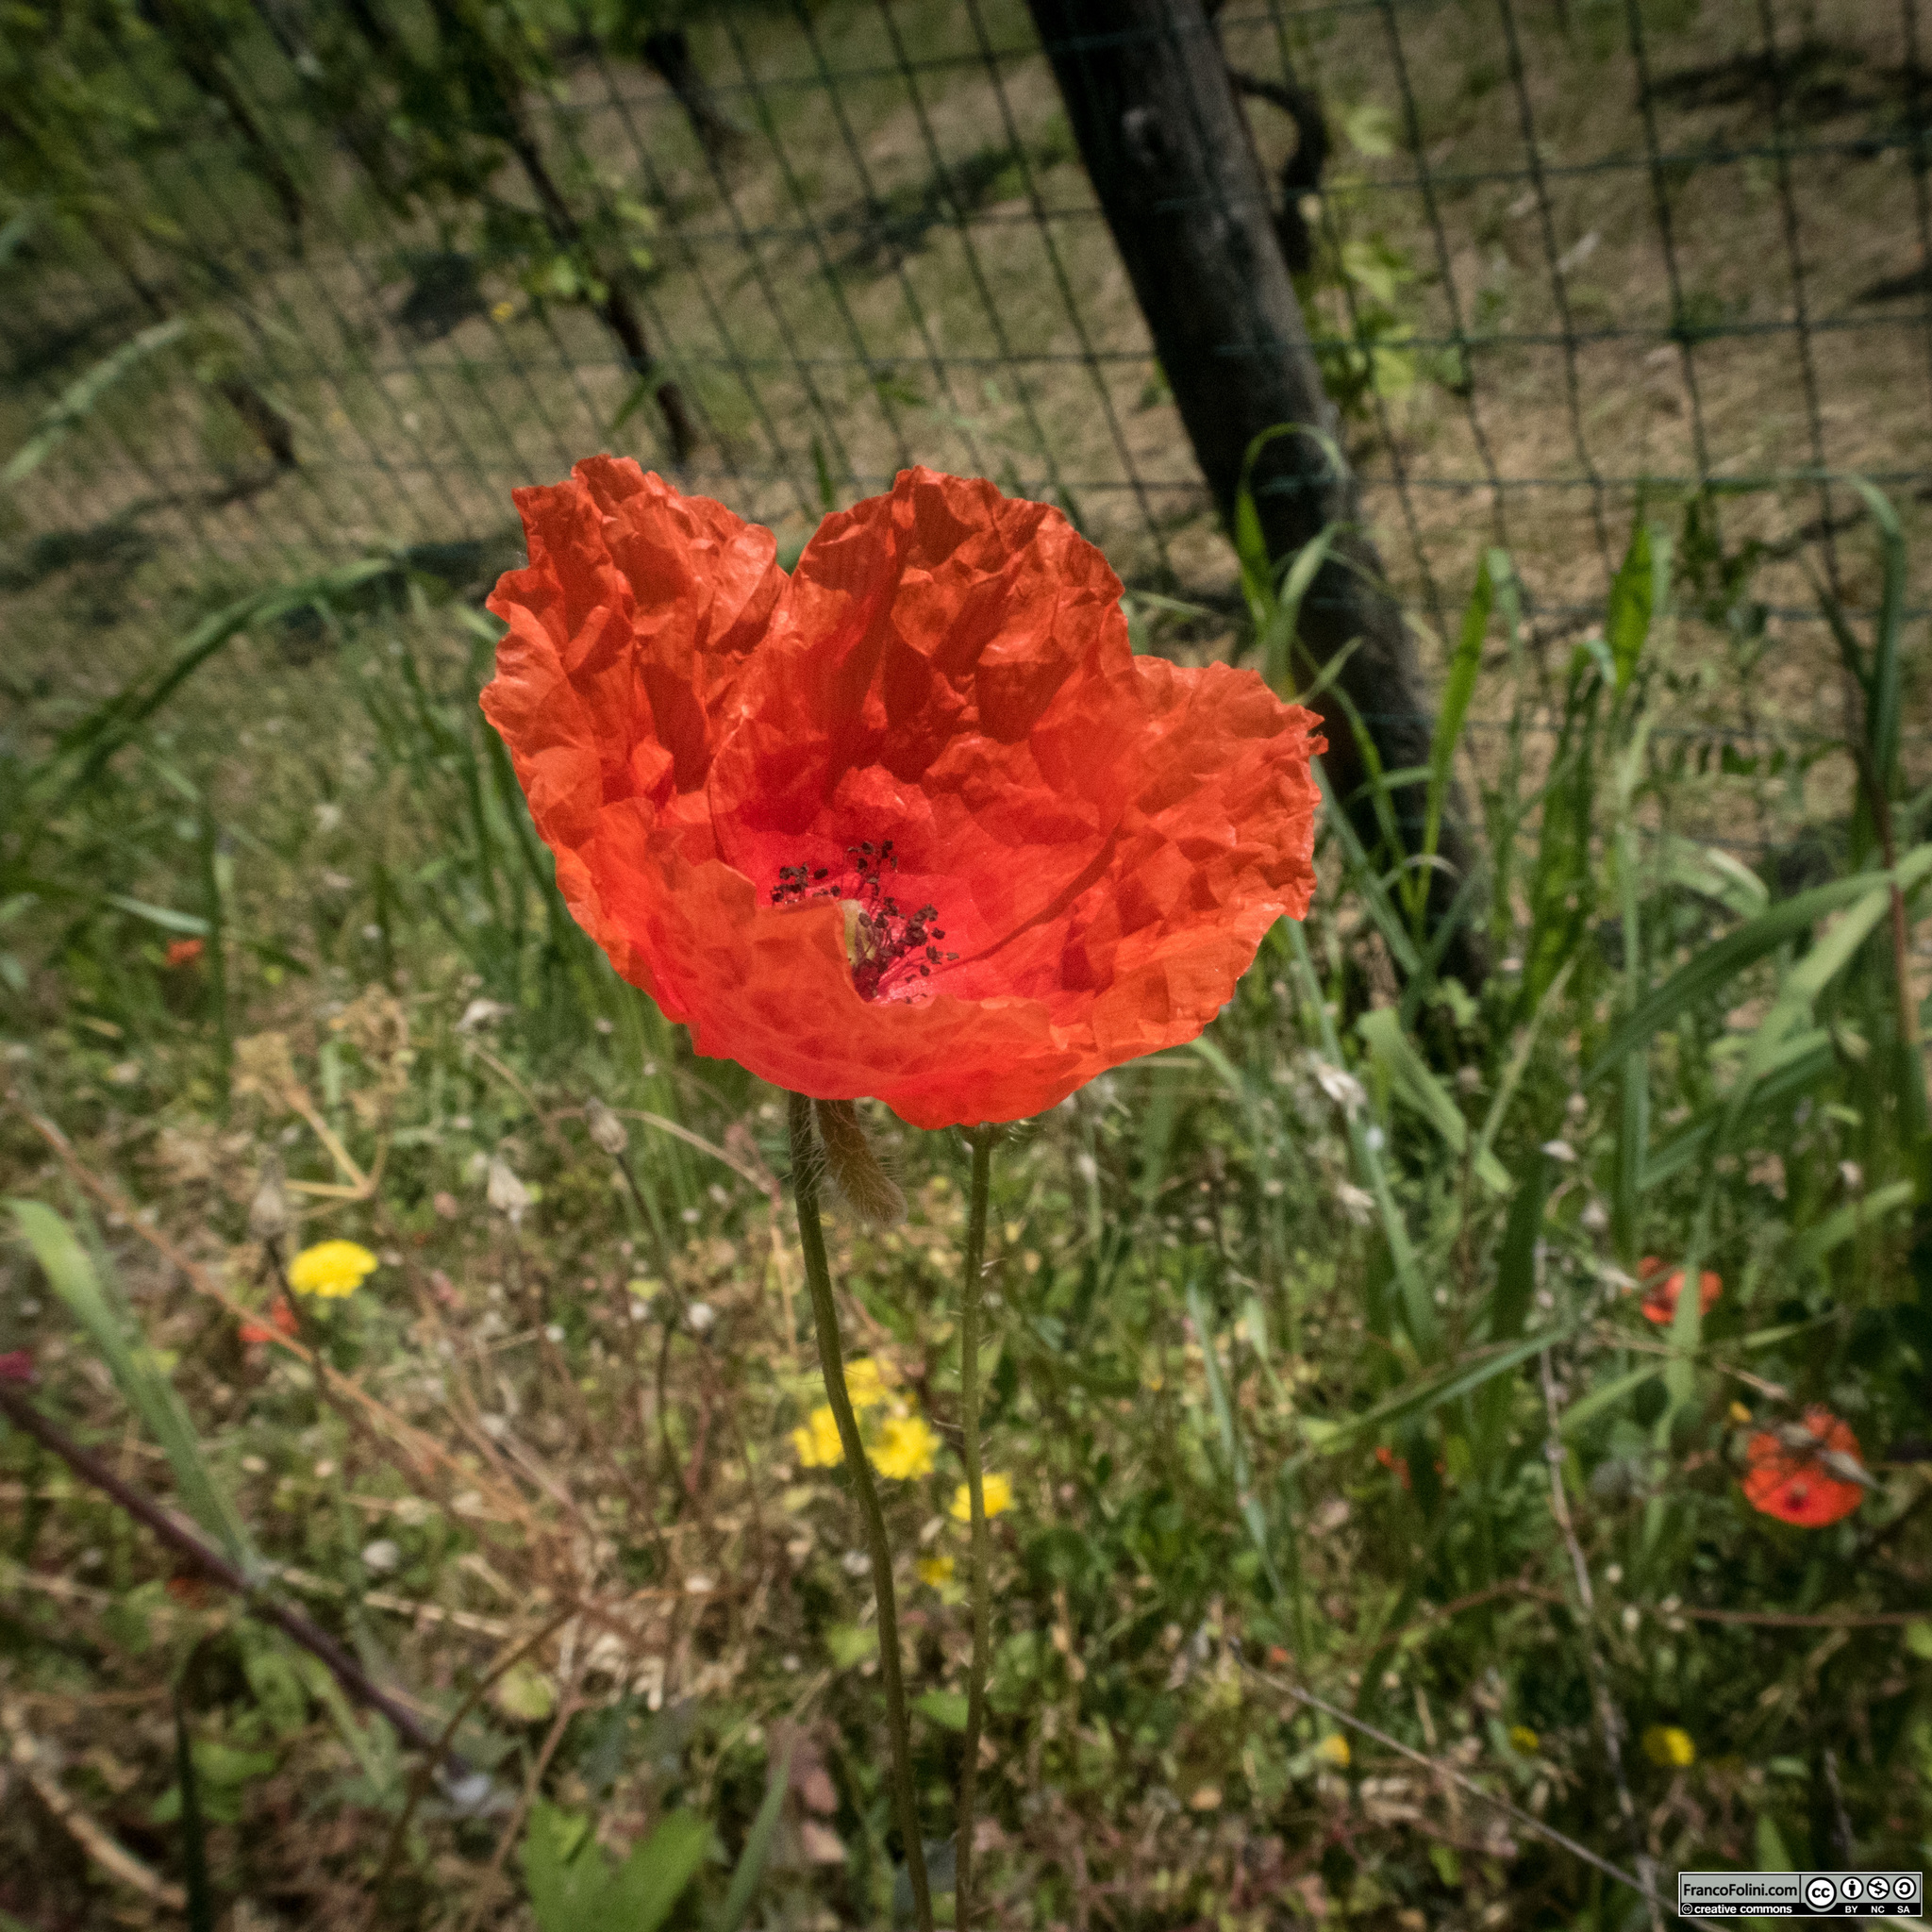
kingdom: Plantae
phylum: Tracheophyta
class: Magnoliopsida
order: Ranunculales
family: Papaveraceae
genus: Papaver
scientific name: Papaver rhoeas
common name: Corn poppy
